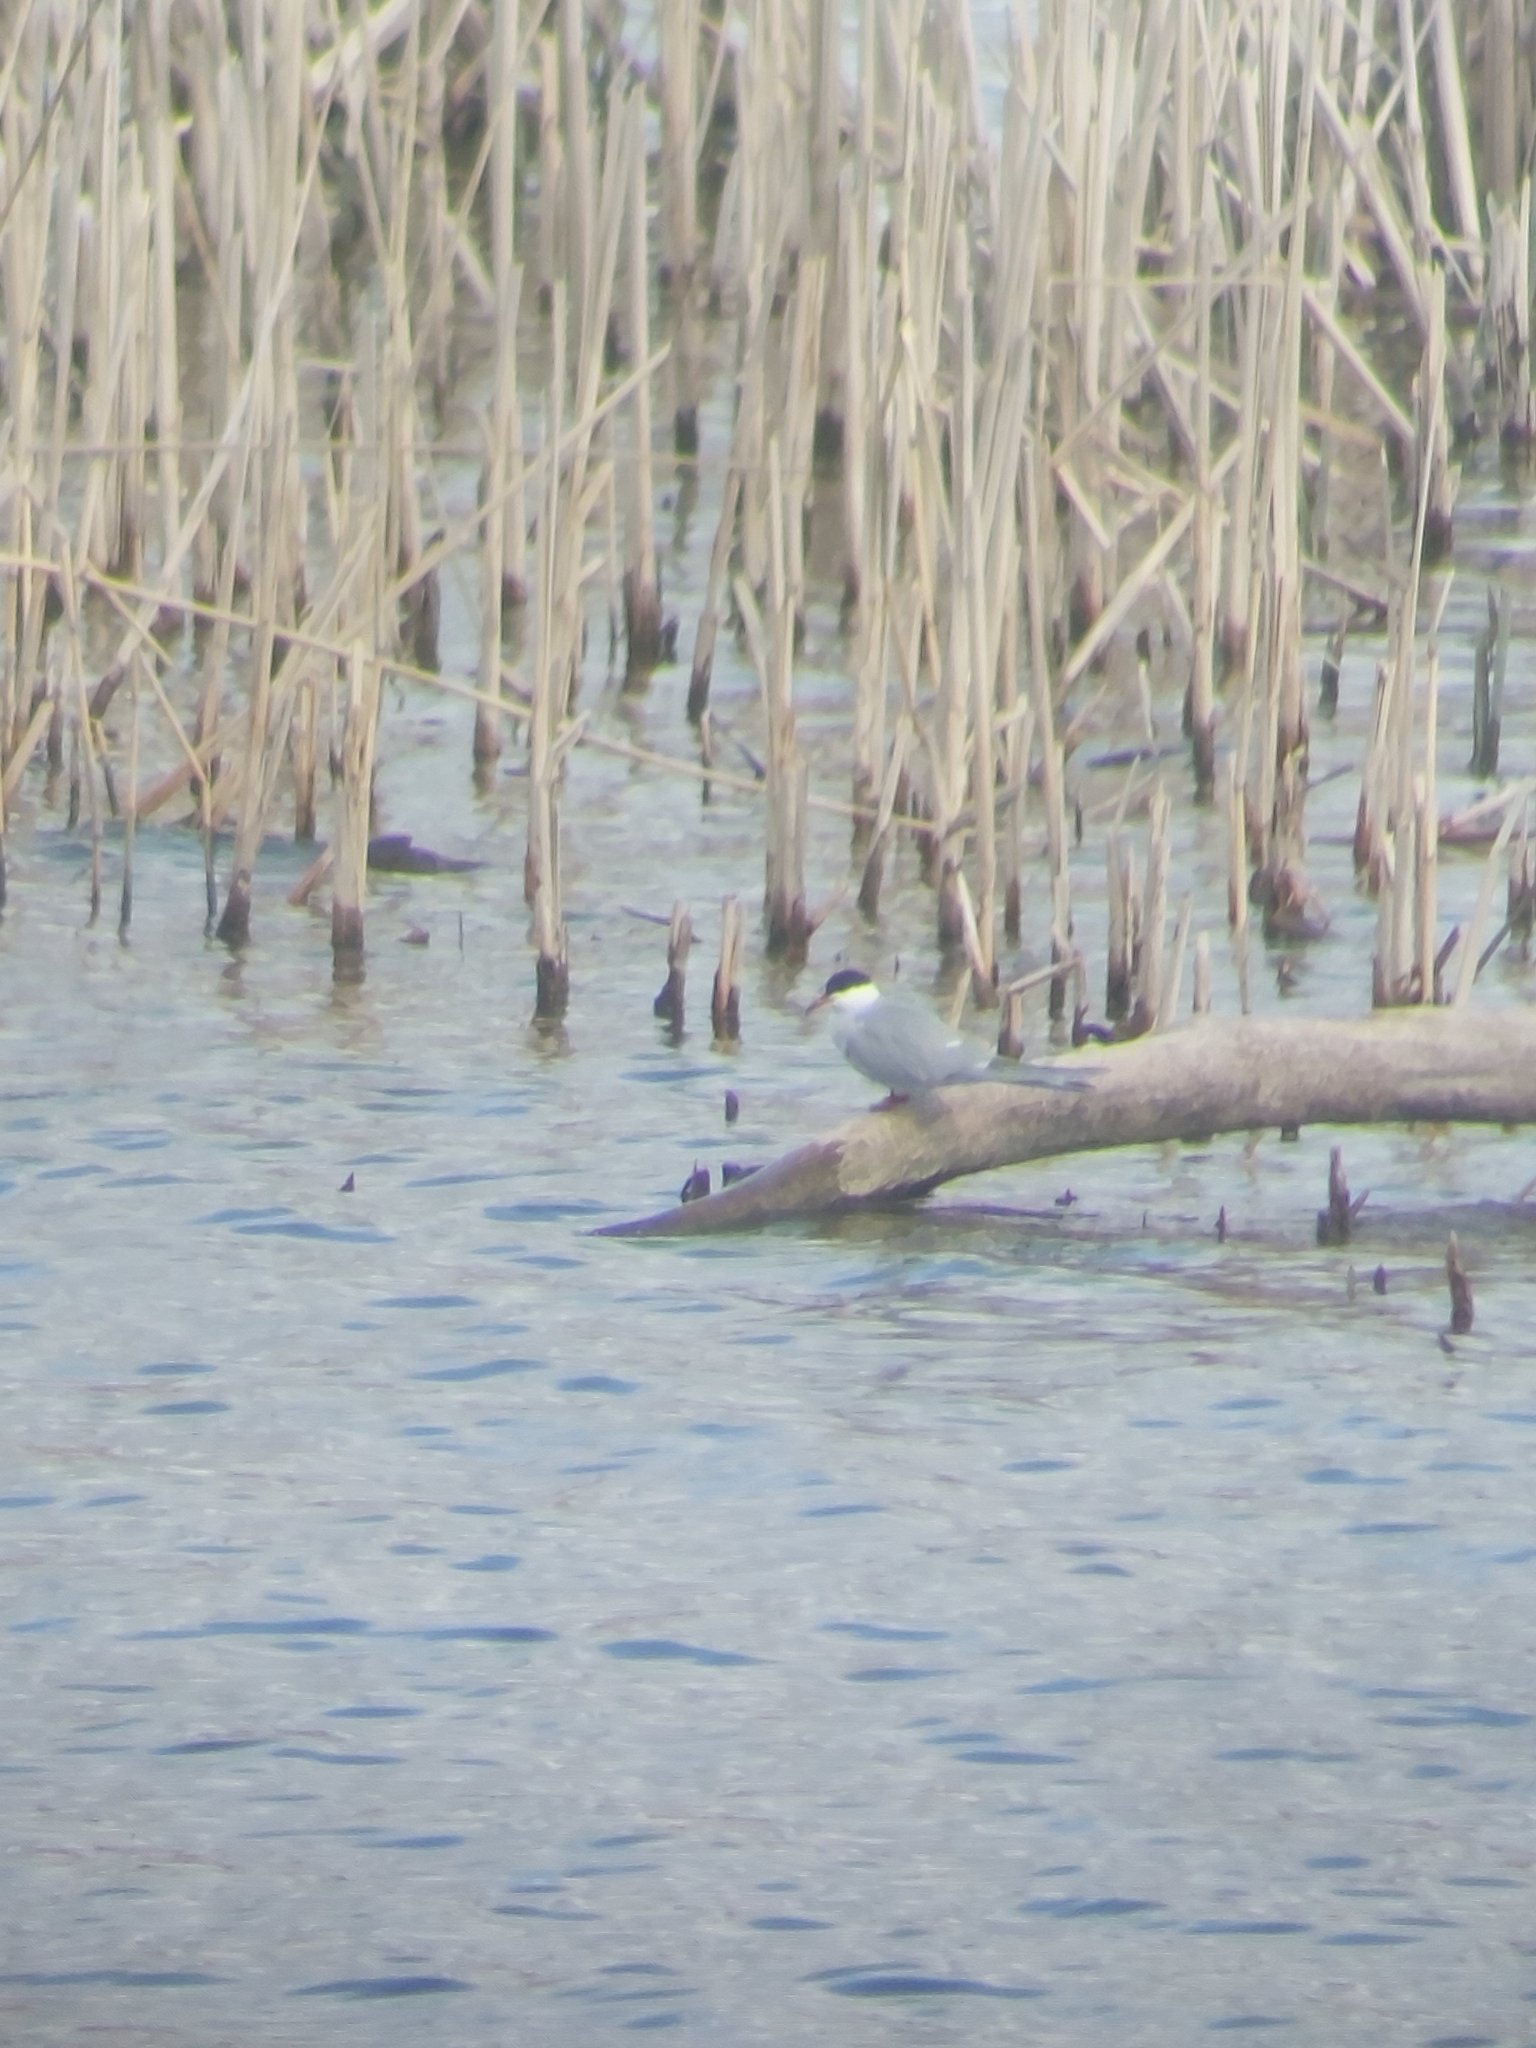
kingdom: Animalia
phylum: Chordata
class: Aves
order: Charadriiformes
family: Laridae
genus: Sterna
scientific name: Sterna hirundo
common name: Common tern
